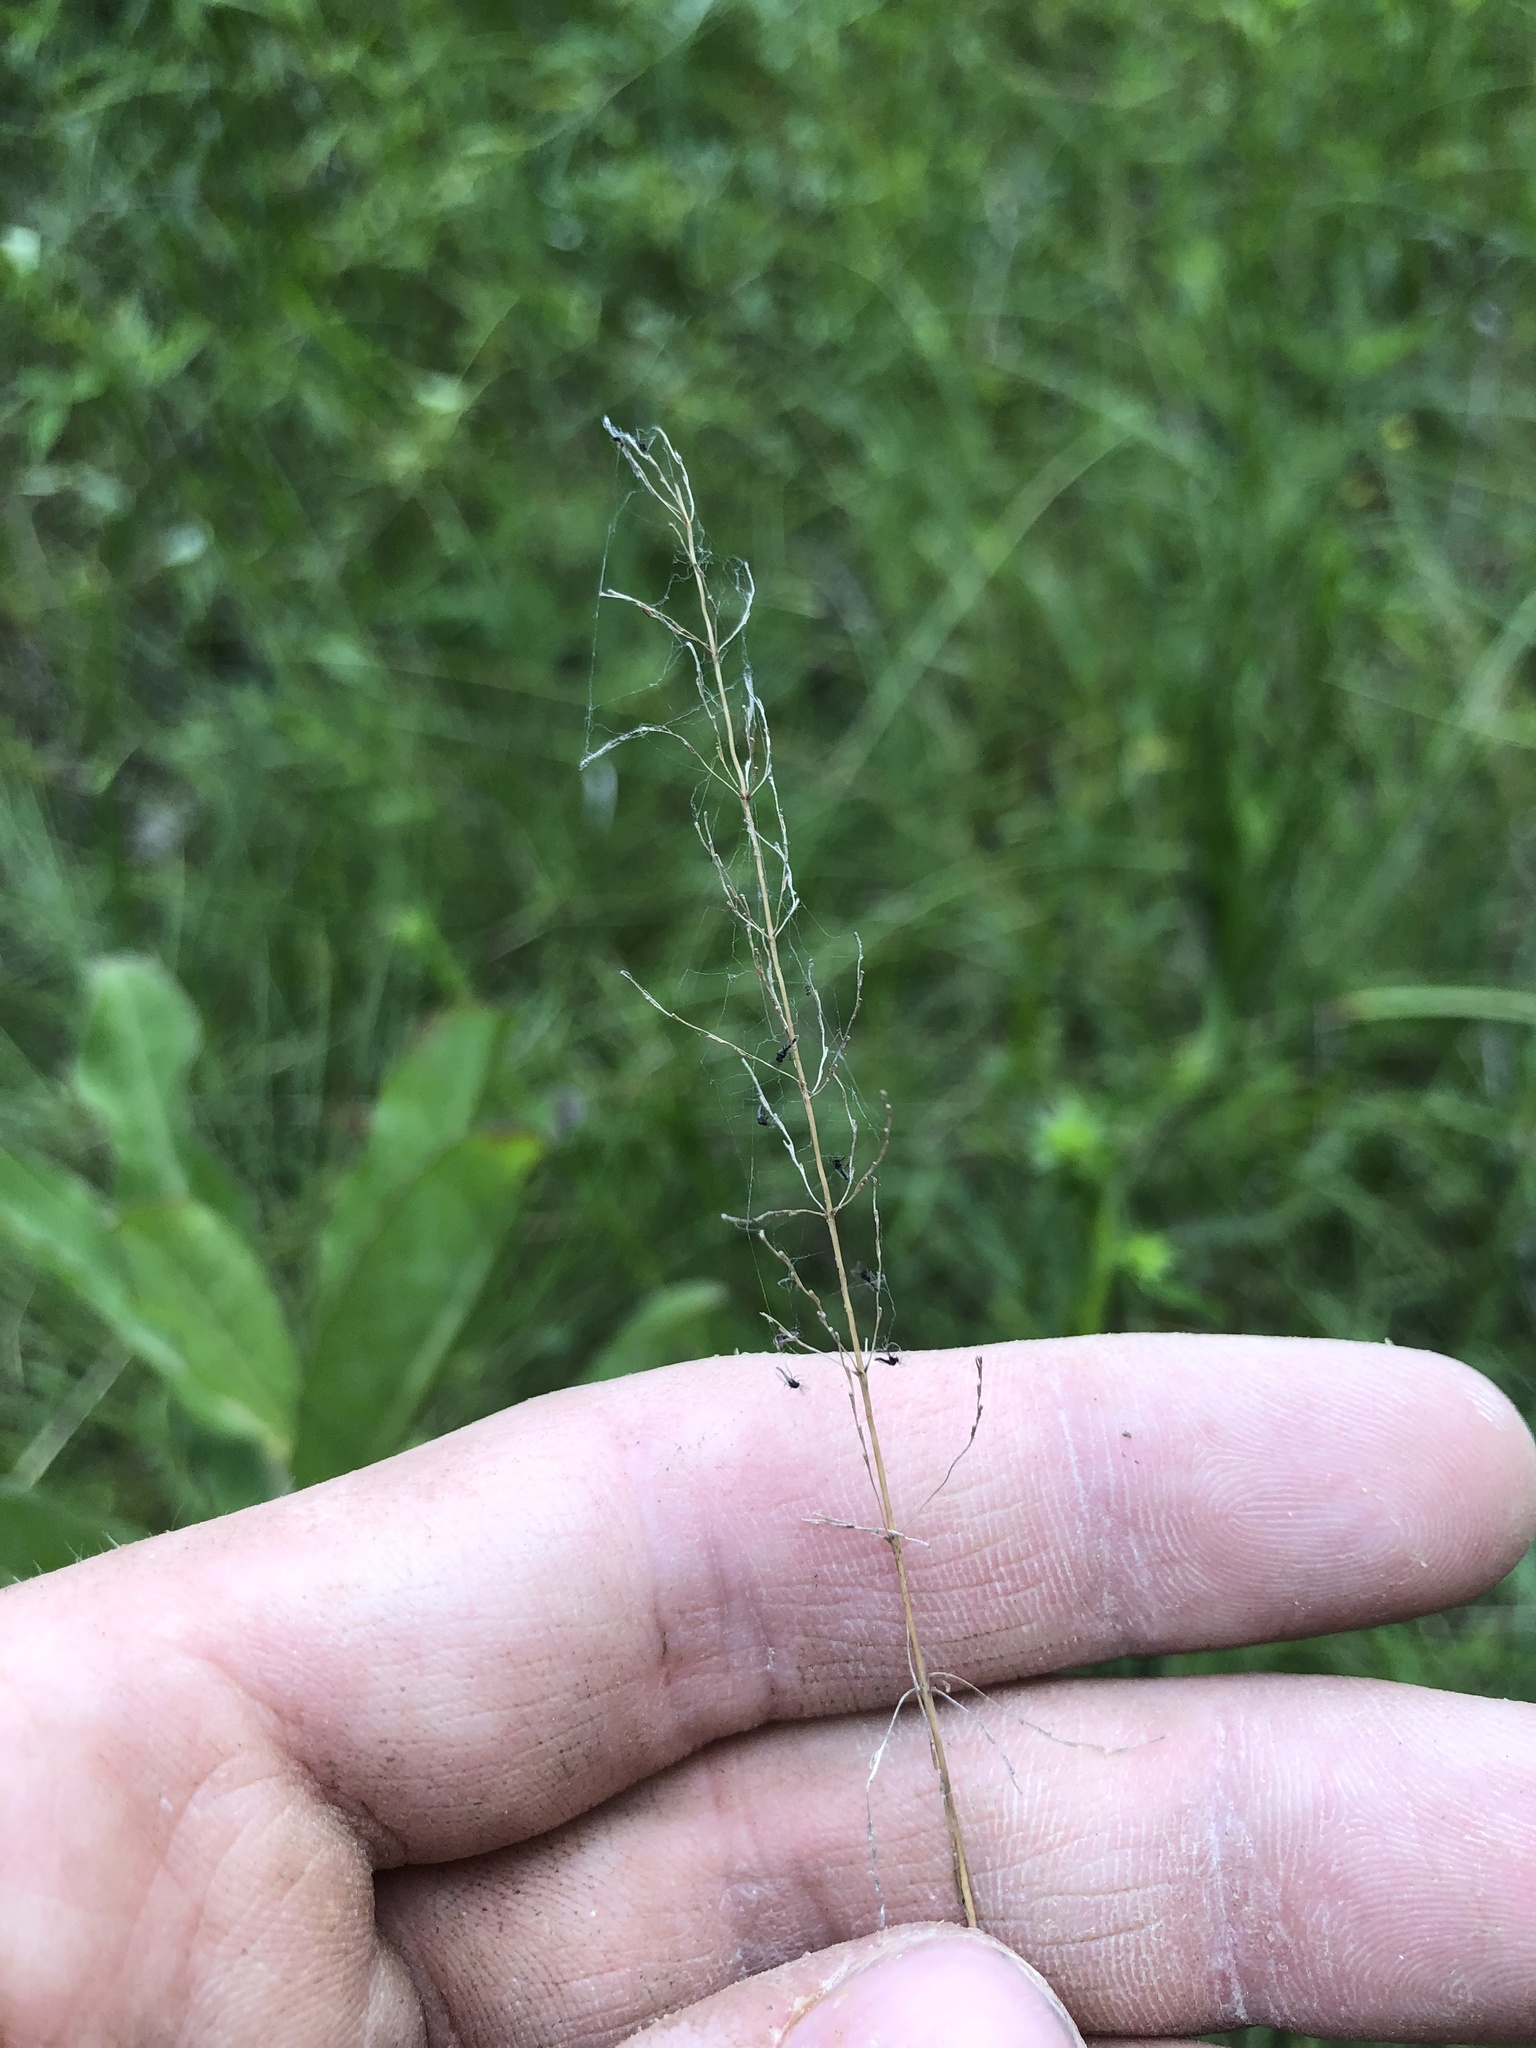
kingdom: Plantae
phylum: Tracheophyta
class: Liliopsida
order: Poales
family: Poaceae
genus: Sporobolus
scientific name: Sporobolus junceus
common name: Lizard grass
